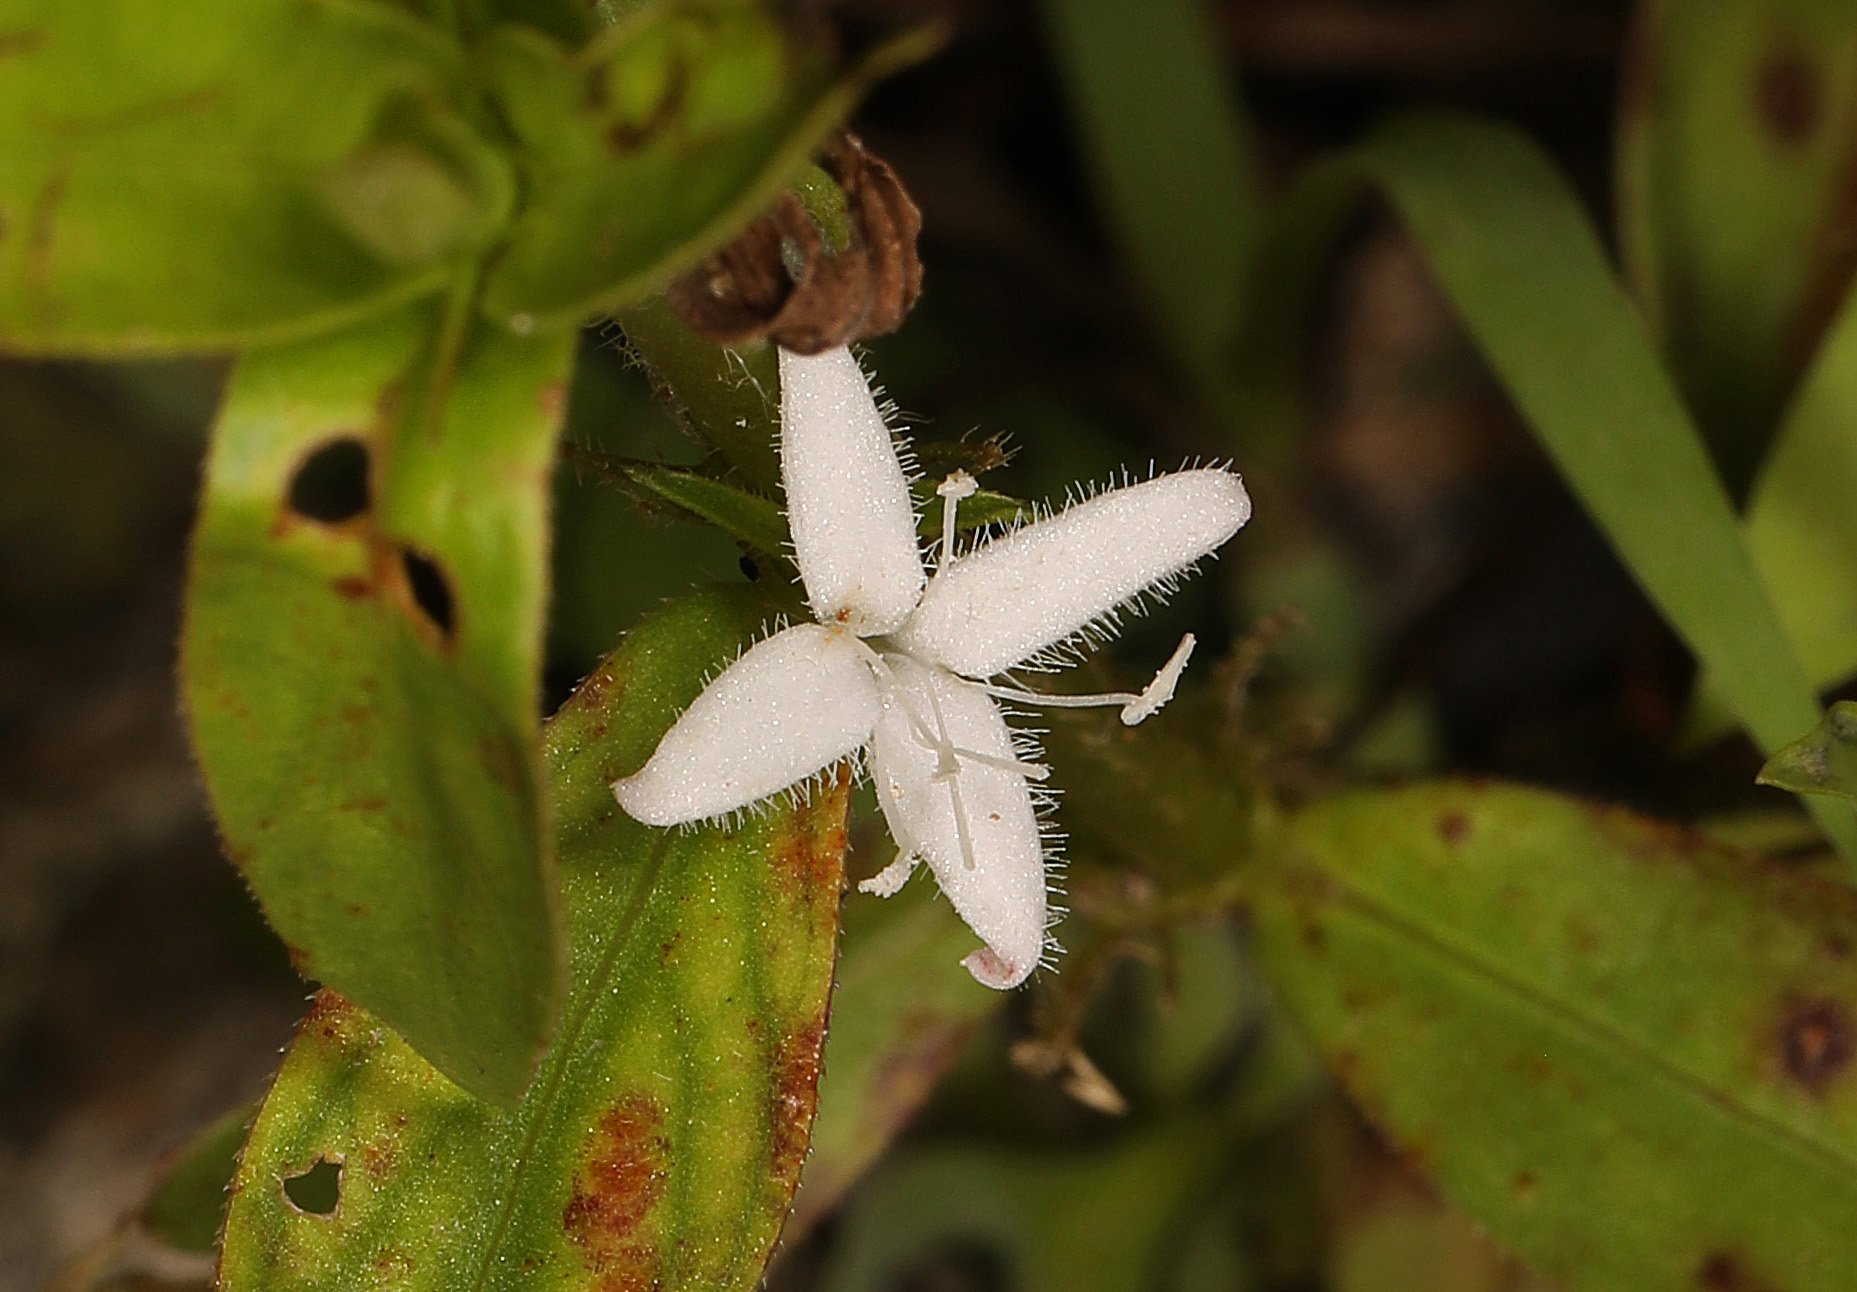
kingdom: Plantae
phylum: Tracheophyta
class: Magnoliopsida
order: Gentianales
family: Rubiaceae
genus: Diodia
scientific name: Diodia virginiana
